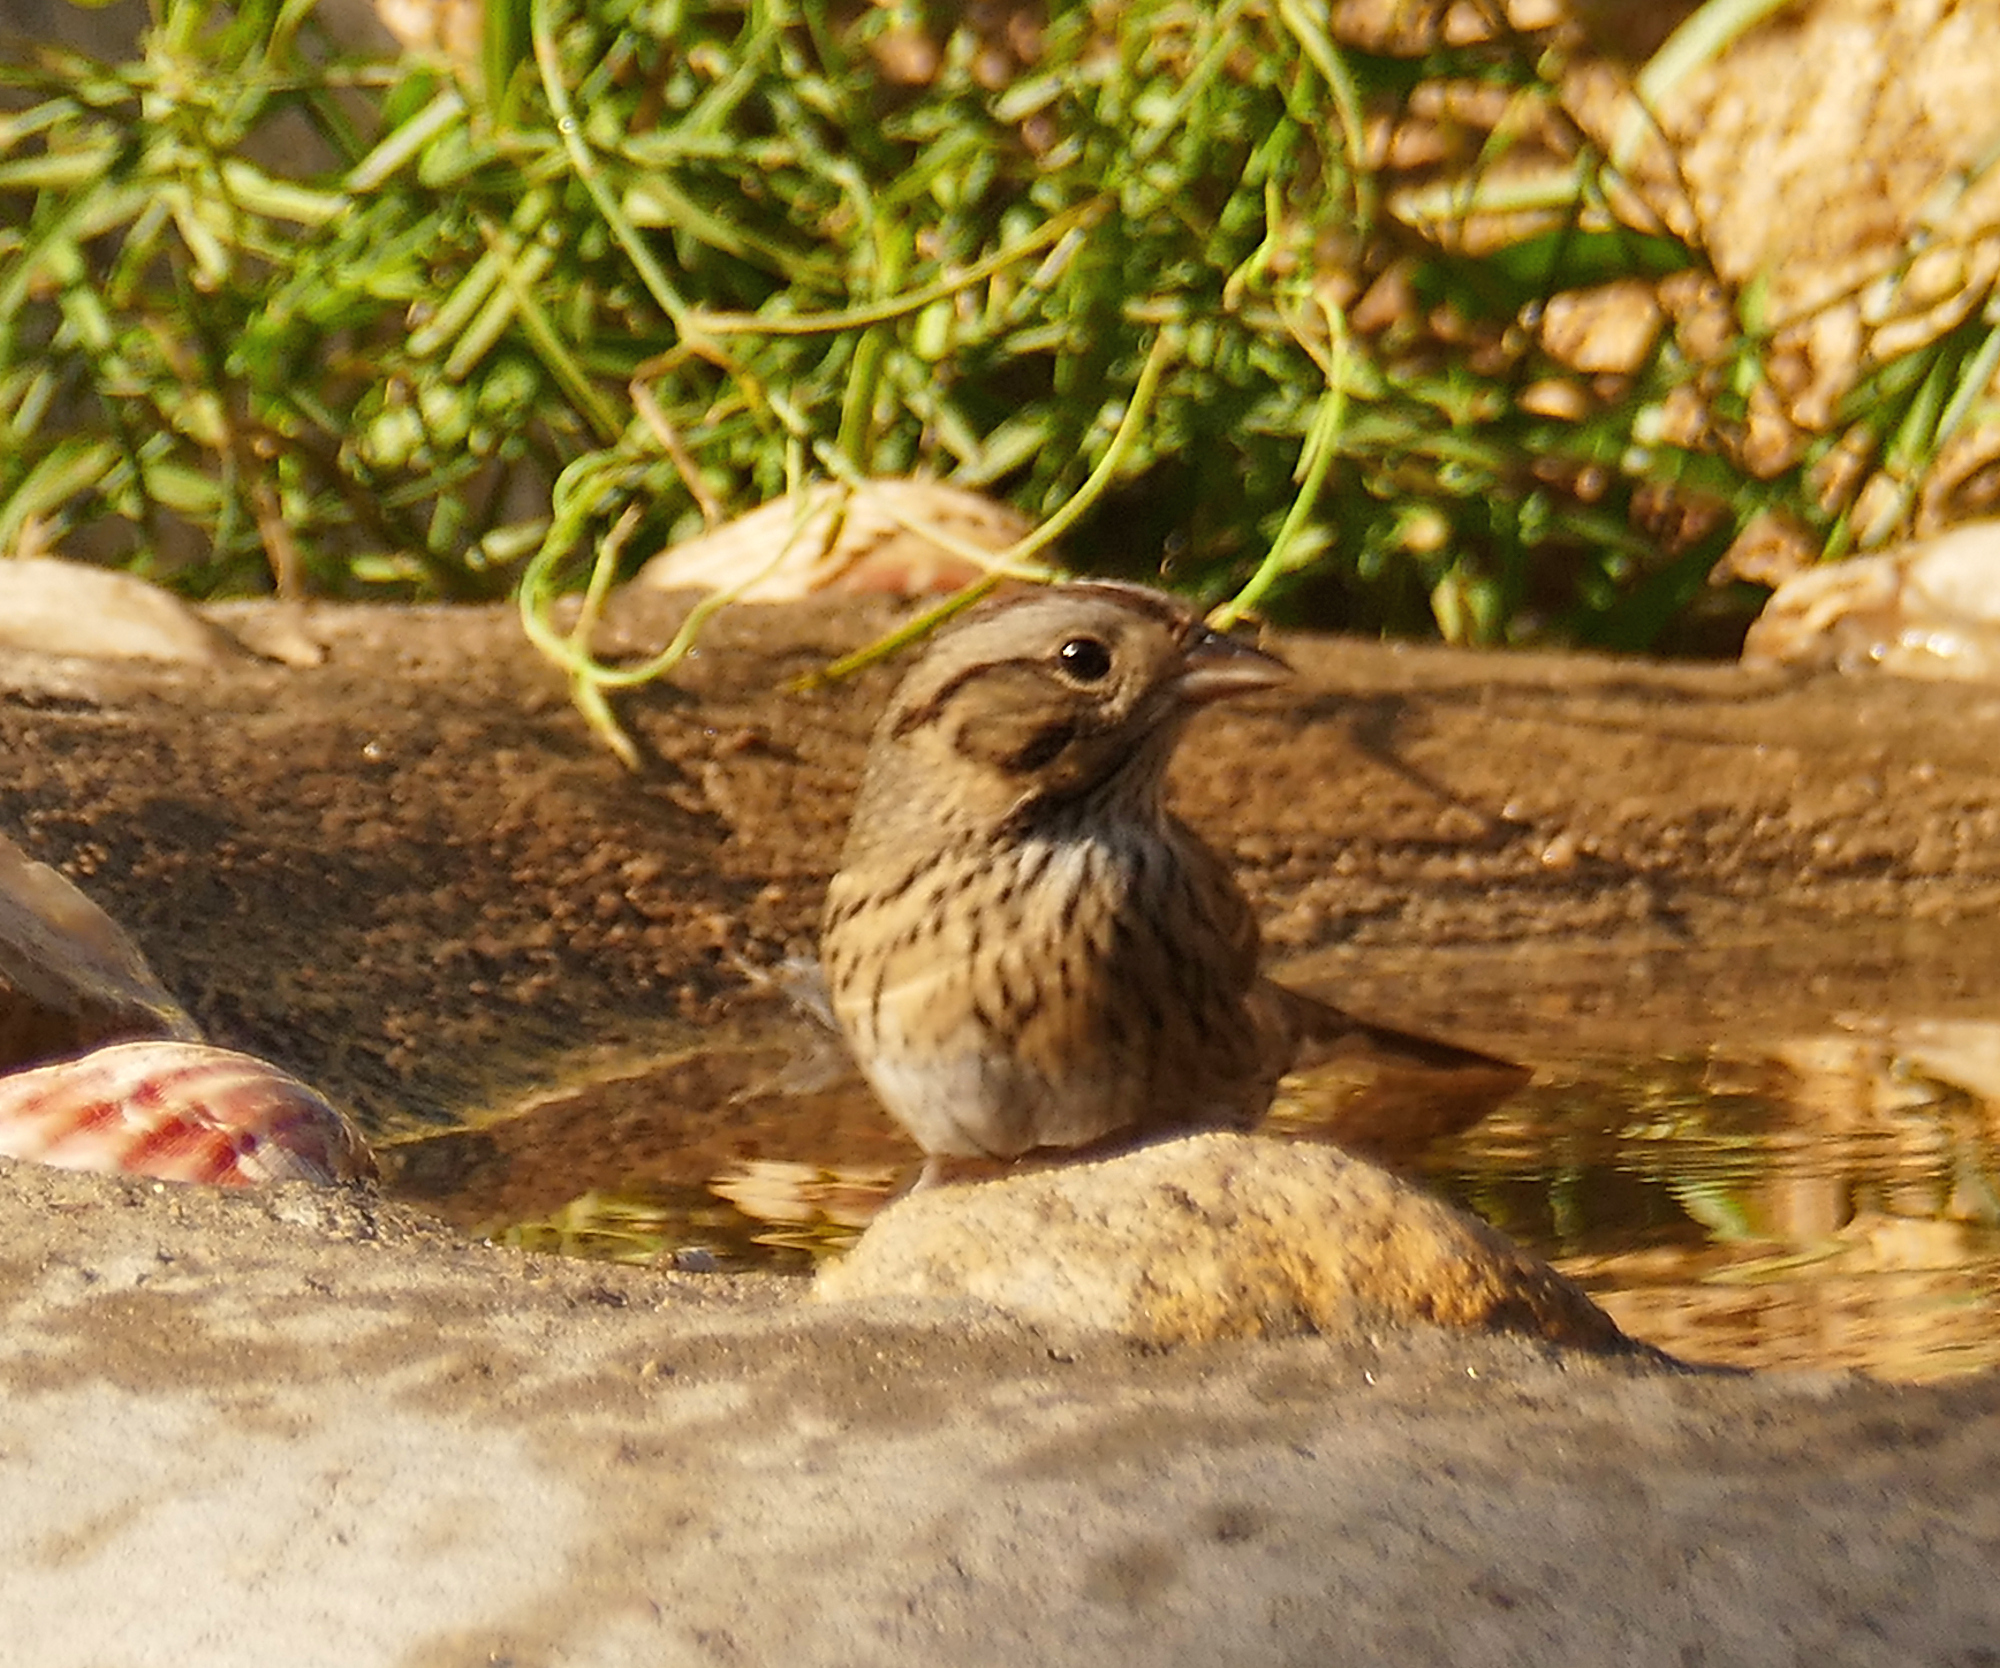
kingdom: Animalia
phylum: Chordata
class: Aves
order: Passeriformes
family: Passerellidae
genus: Melospiza
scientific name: Melospiza lincolnii
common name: Lincoln's sparrow
